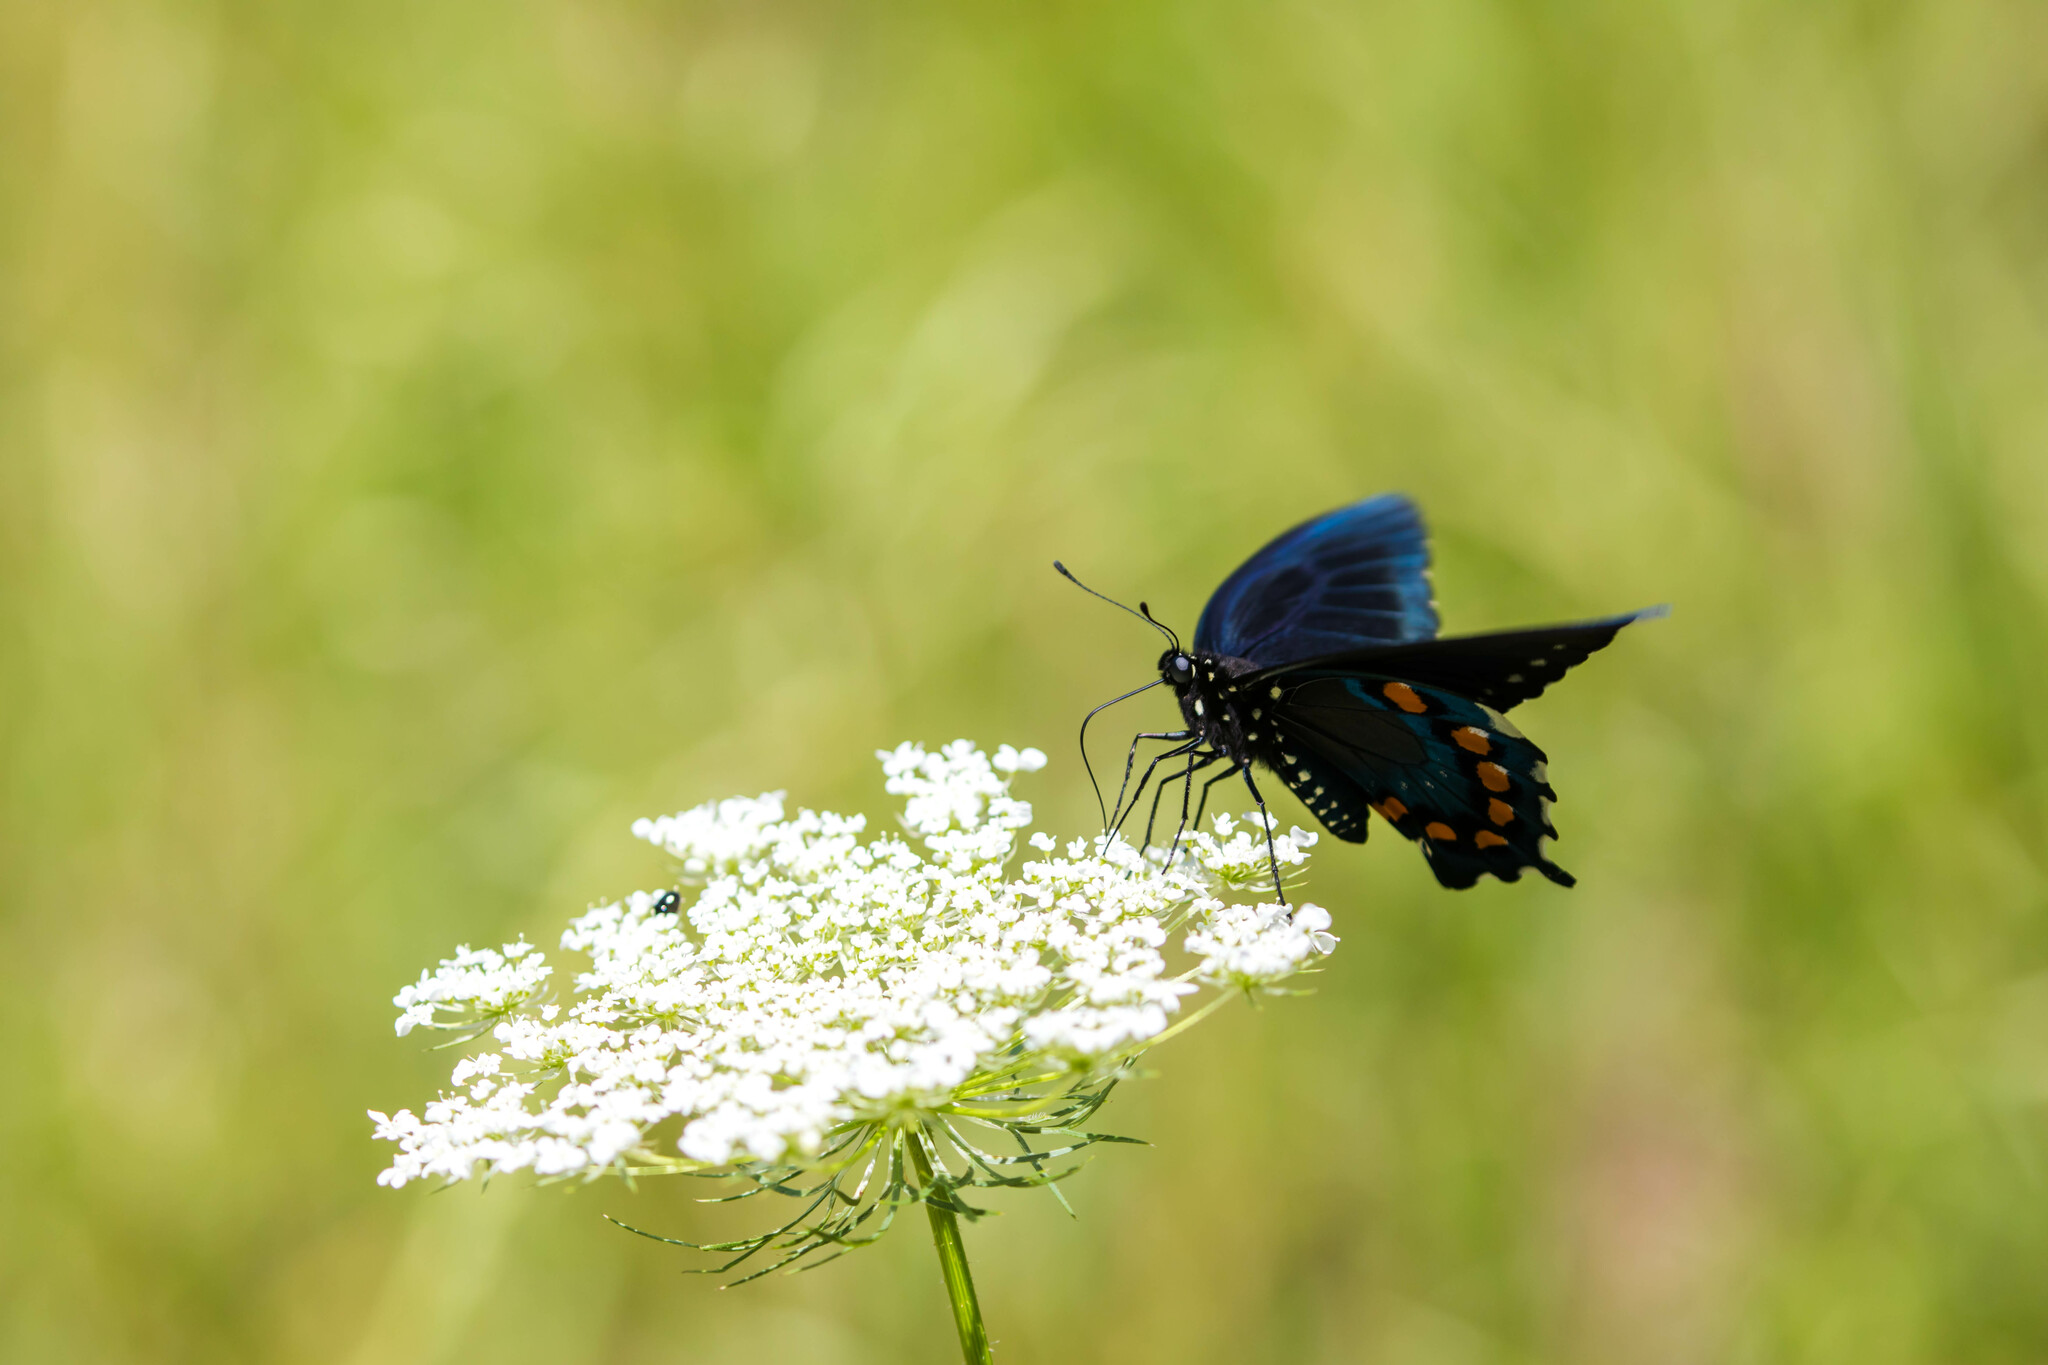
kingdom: Animalia
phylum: Arthropoda
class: Insecta
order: Lepidoptera
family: Papilionidae
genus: Battus
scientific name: Battus philenor
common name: Pipevine swallowtail
